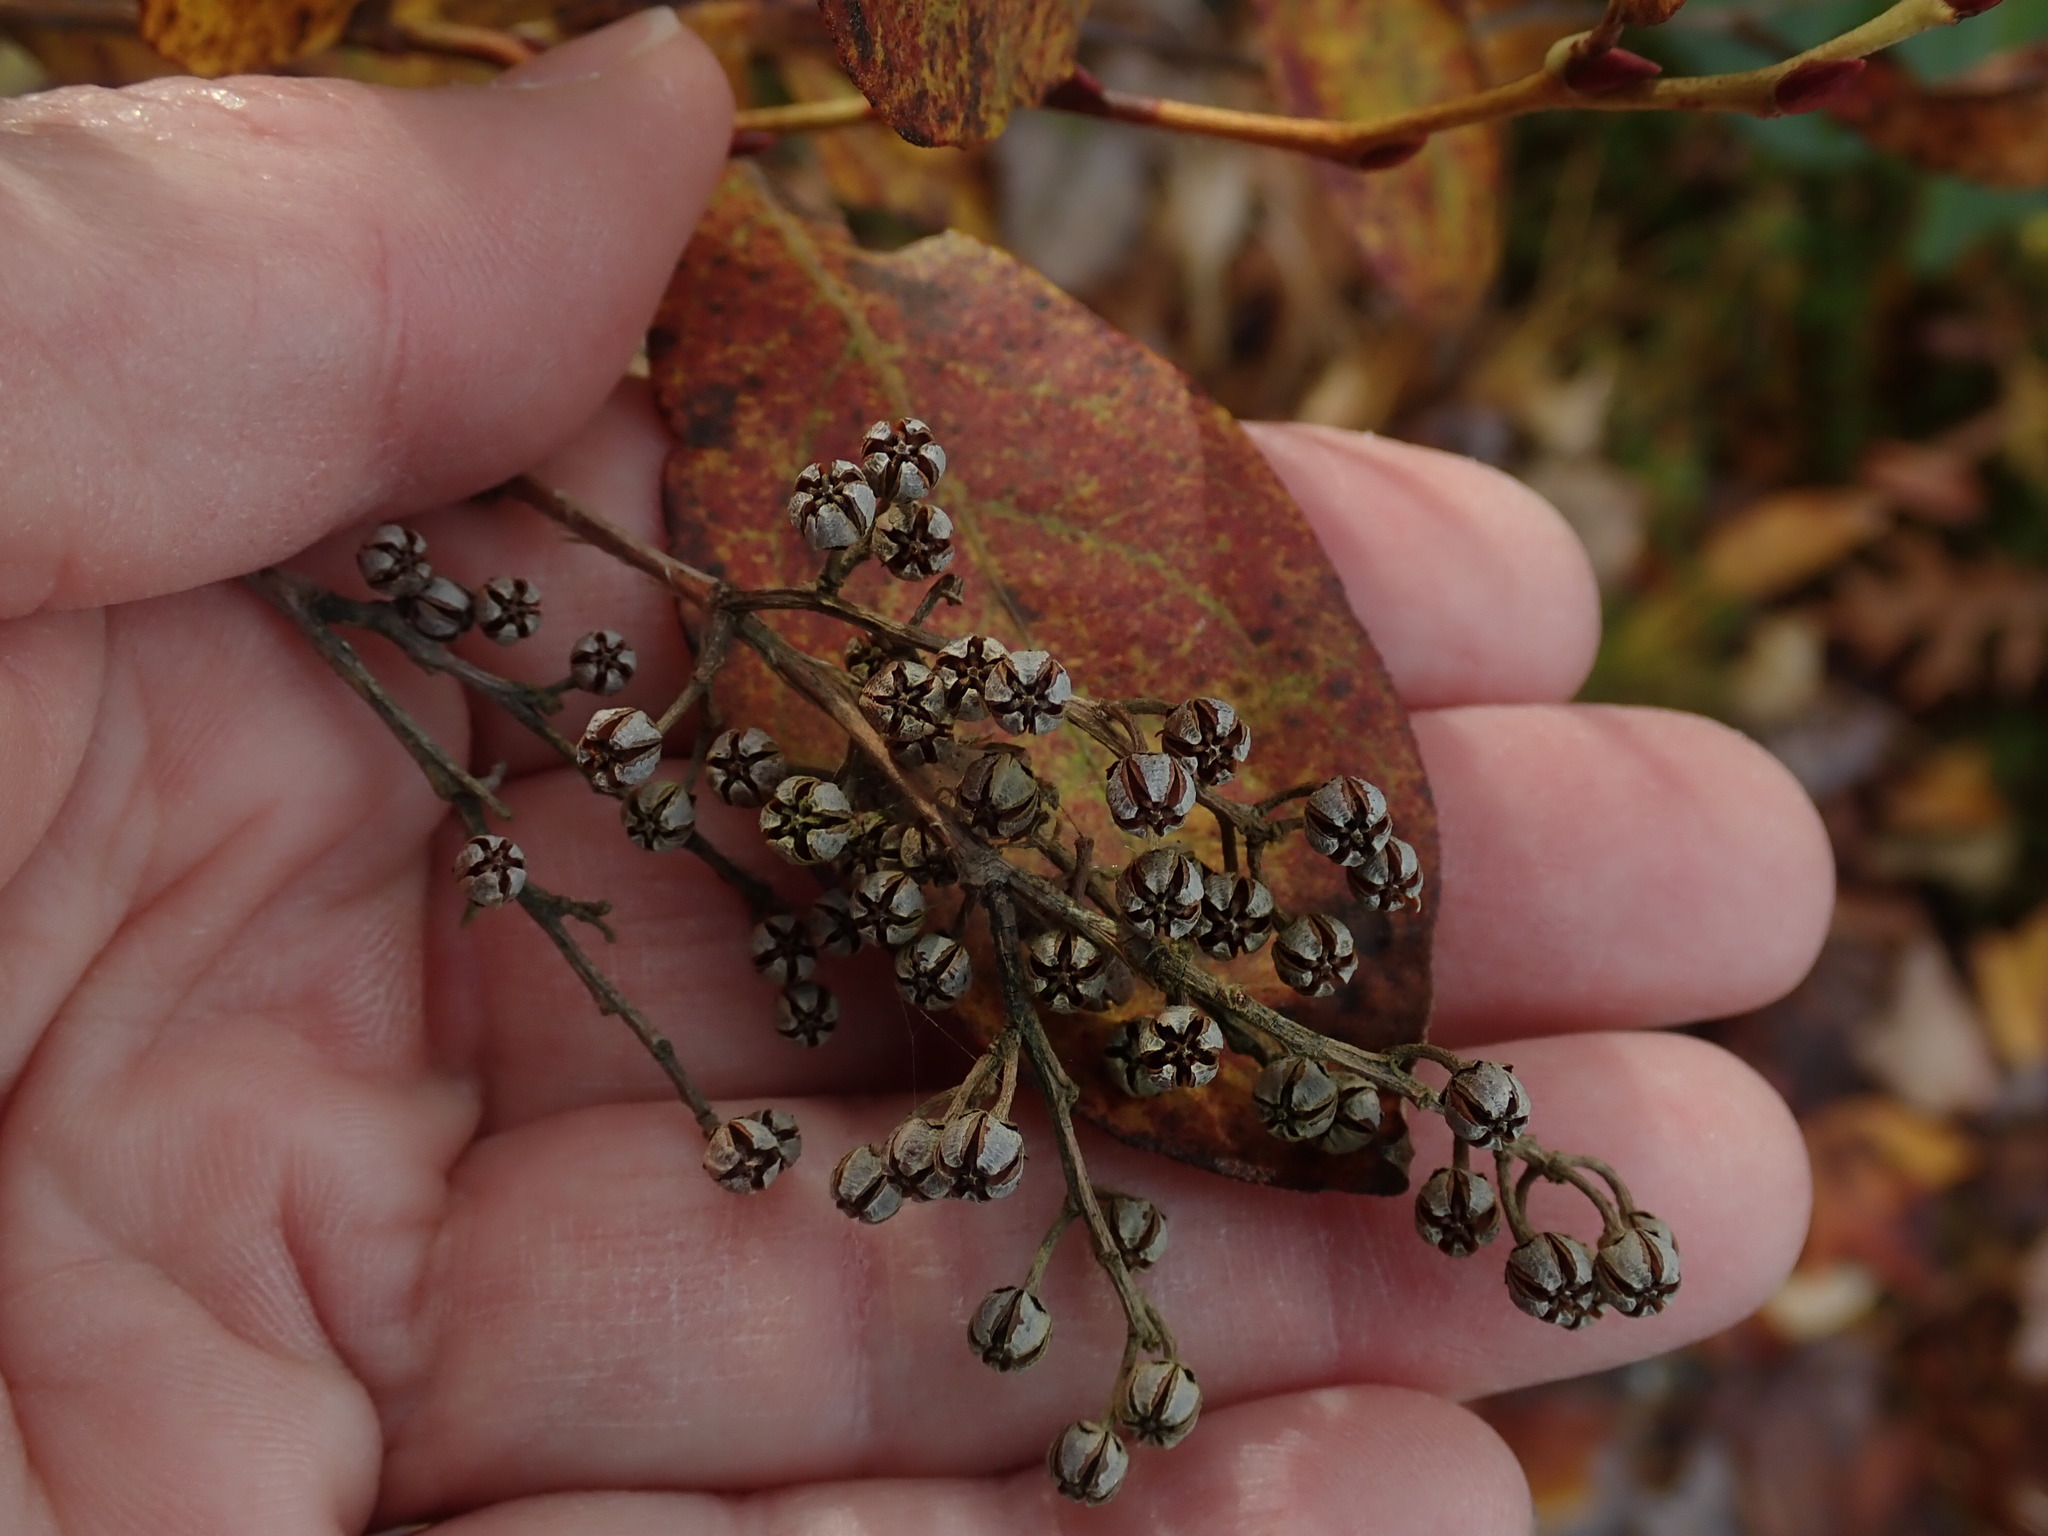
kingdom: Plantae
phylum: Tracheophyta
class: Magnoliopsida
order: Ericales
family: Ericaceae
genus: Lyonia
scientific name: Lyonia ligustrina
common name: Maleberry
